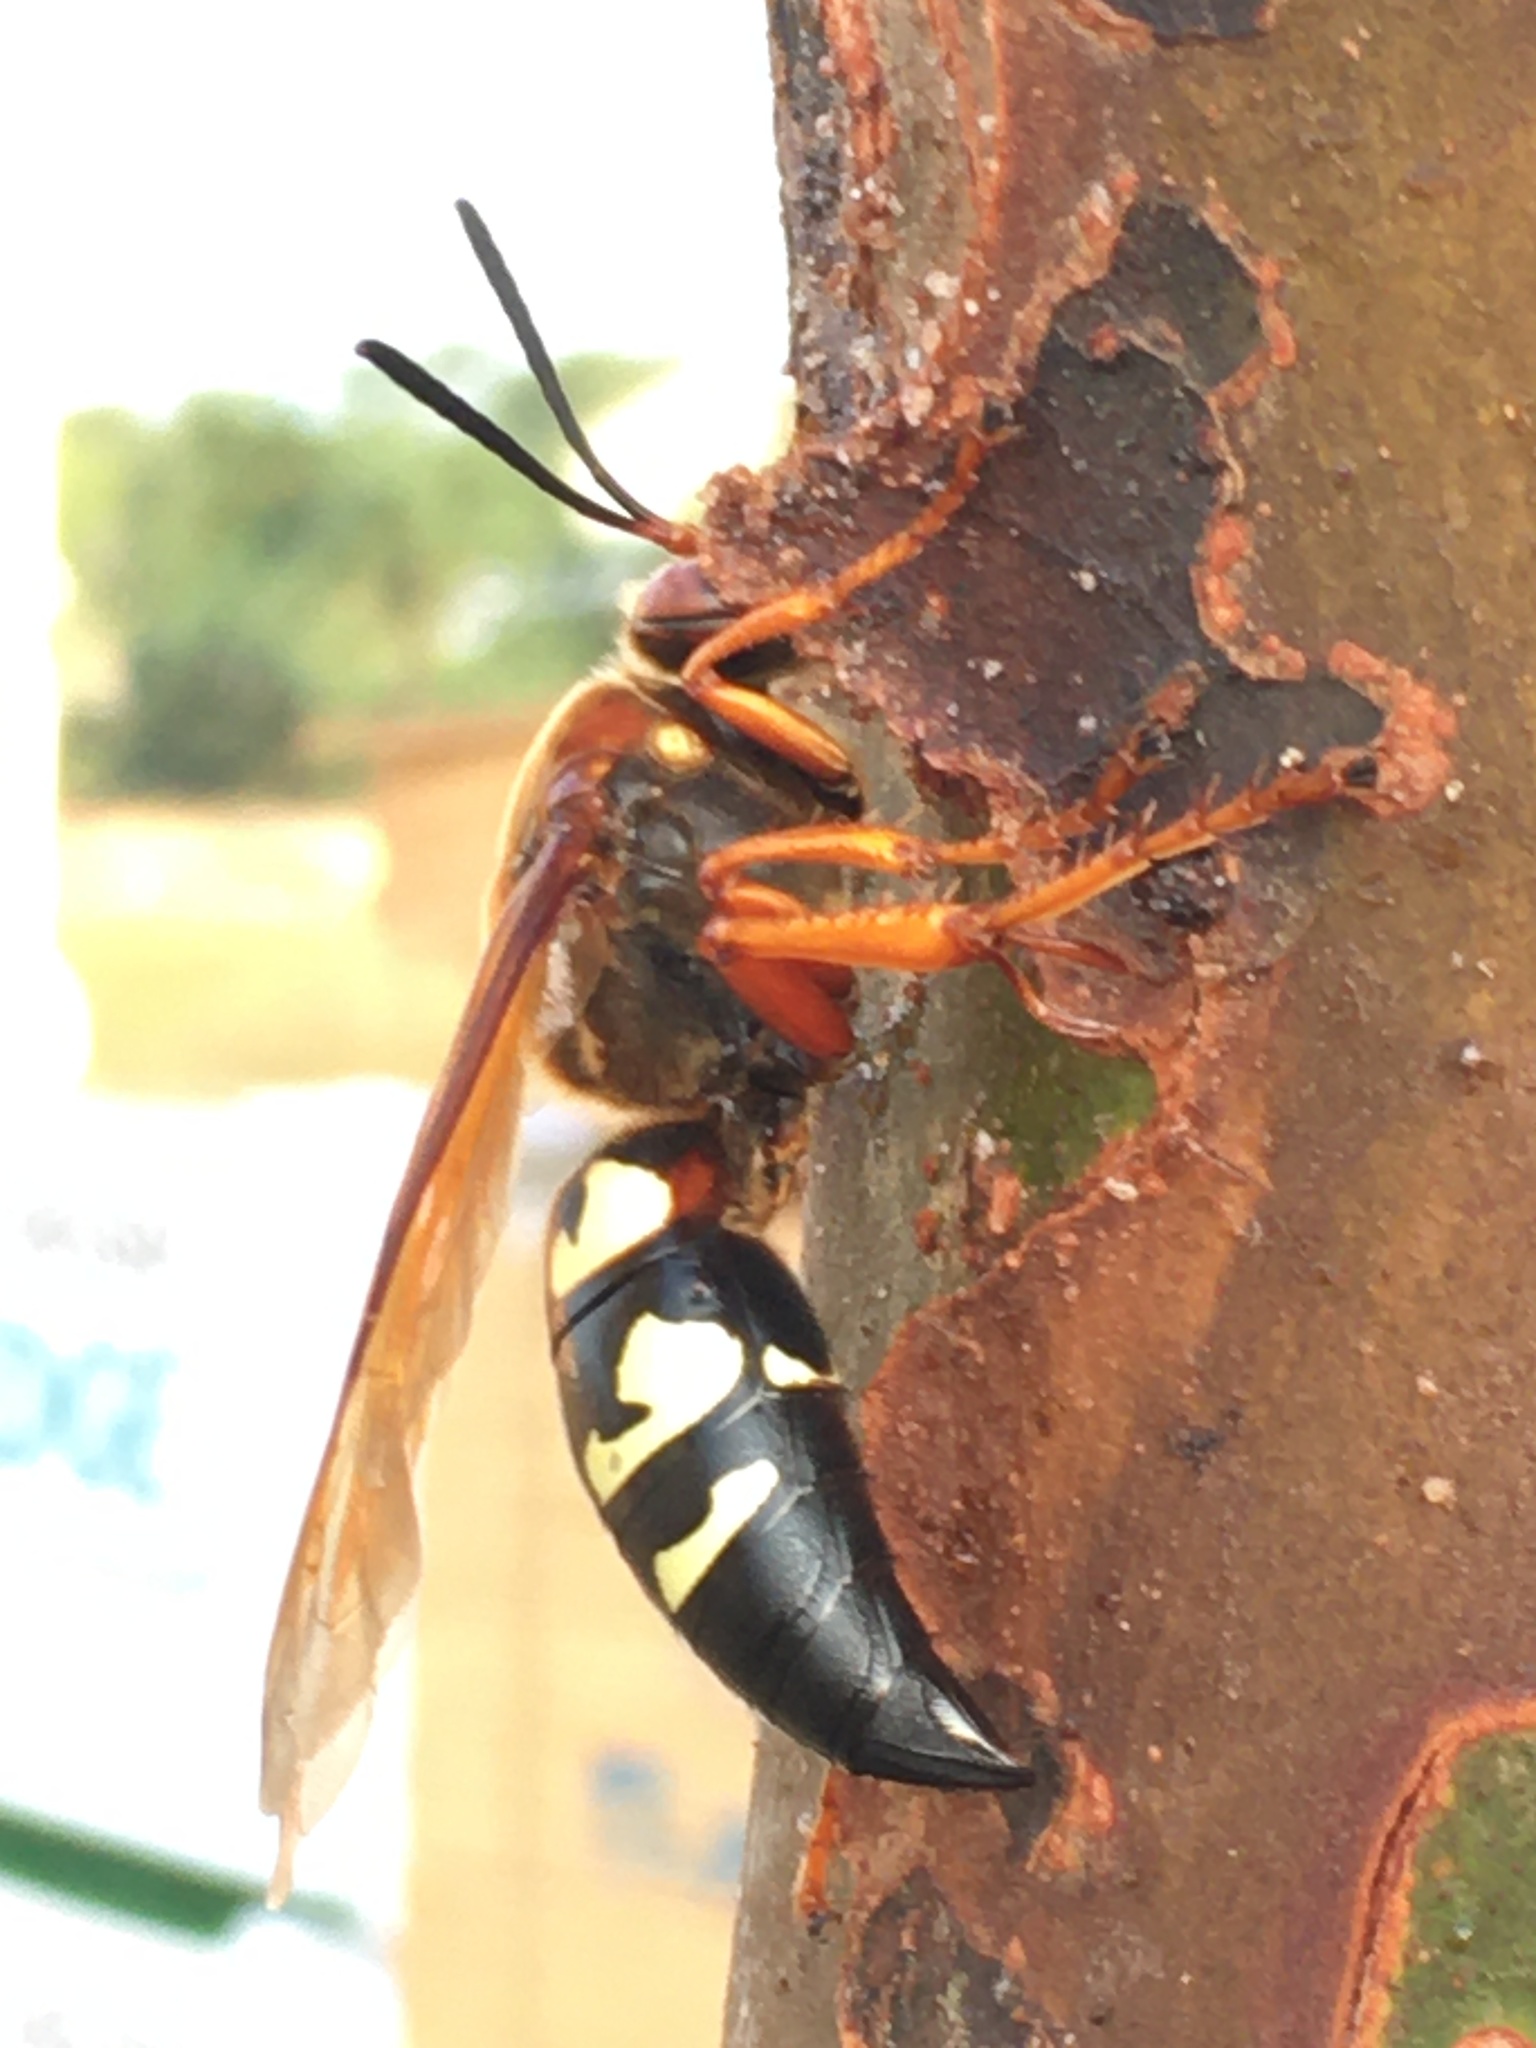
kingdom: Animalia
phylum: Arthropoda
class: Insecta
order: Hymenoptera
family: Crabronidae
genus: Sphecius
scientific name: Sphecius speciosus
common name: Cicada killer
